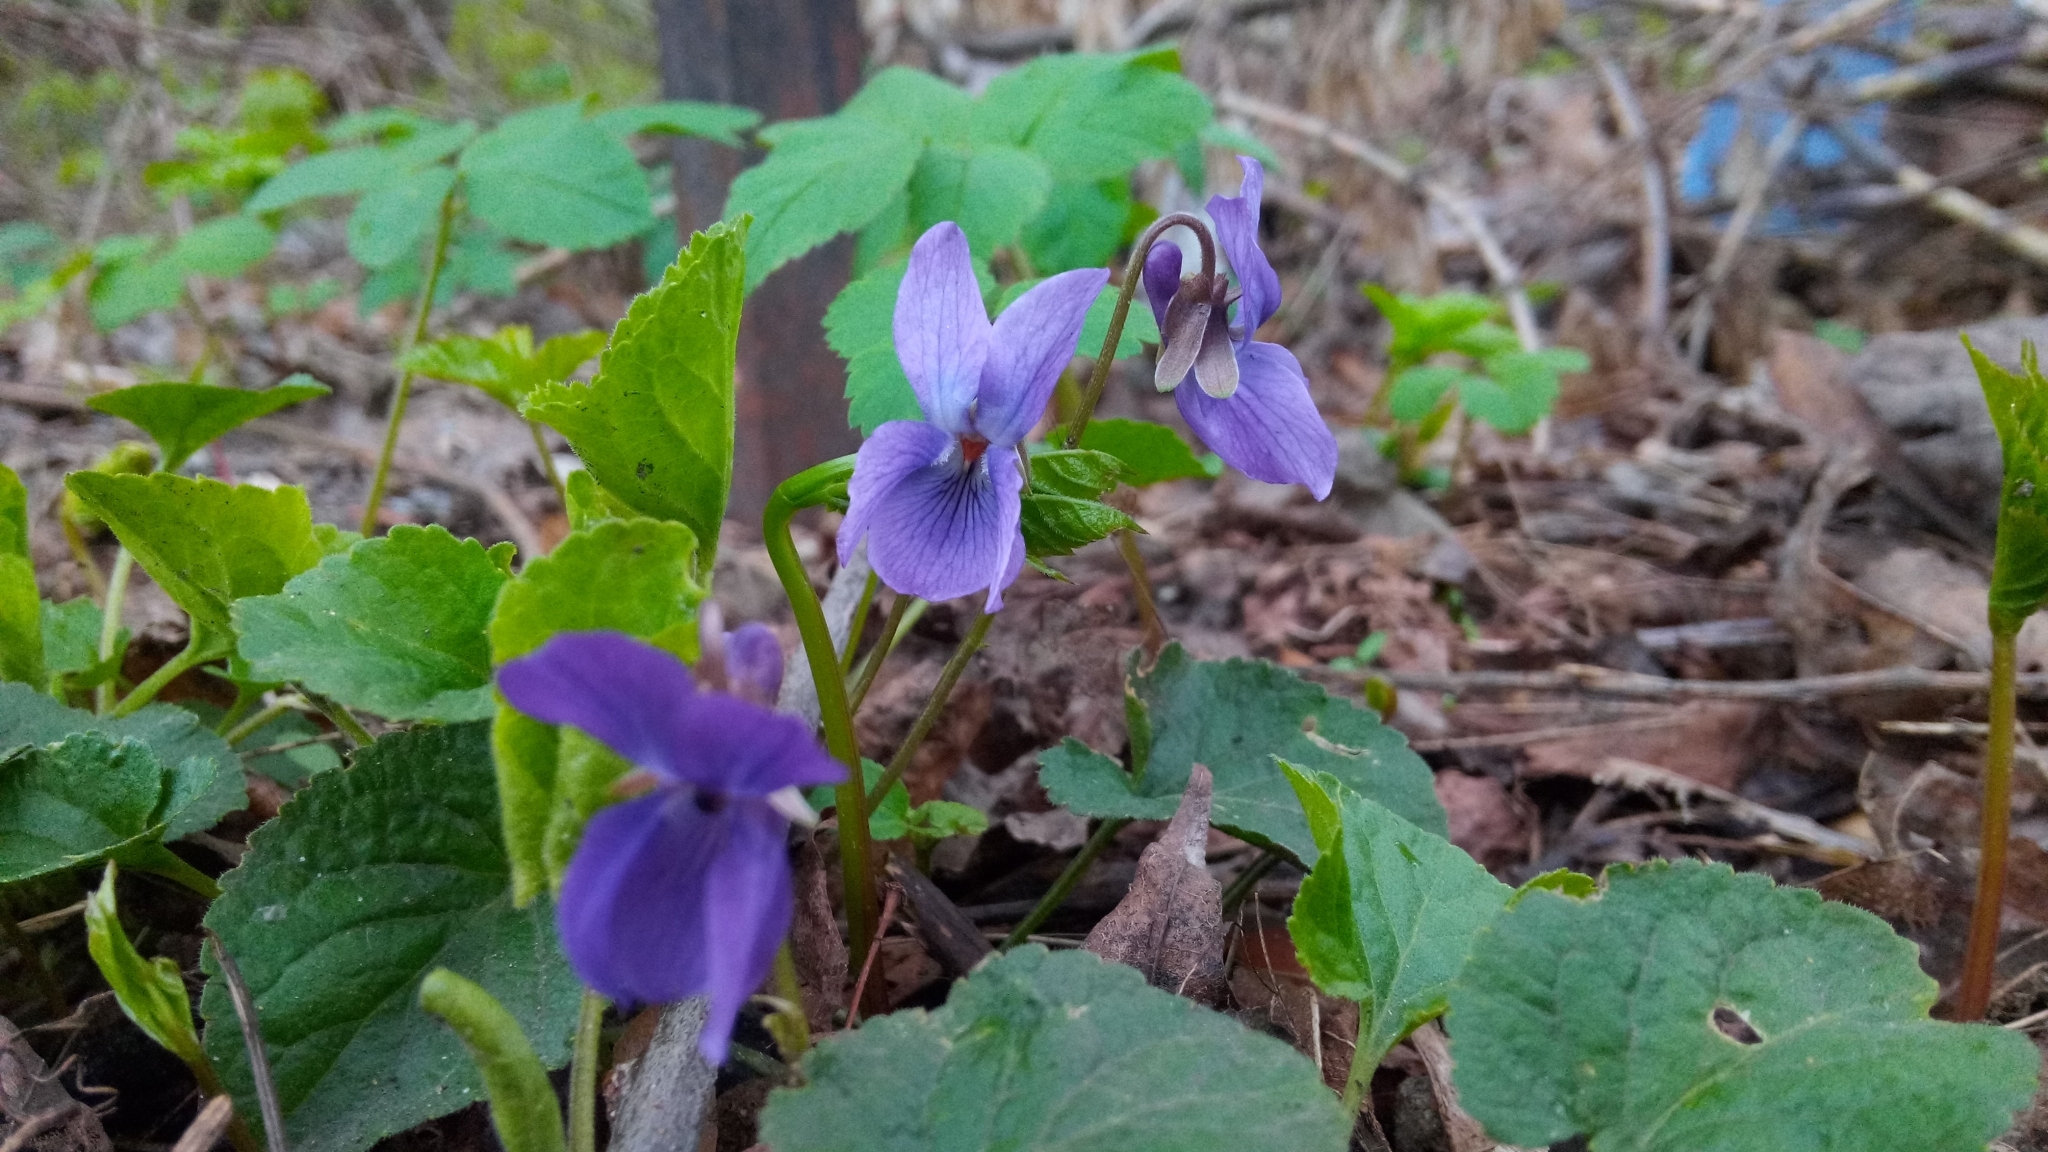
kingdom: Plantae
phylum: Tracheophyta
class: Magnoliopsida
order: Malpighiales
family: Violaceae
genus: Viola
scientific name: Viola odorata
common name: Sweet violet
